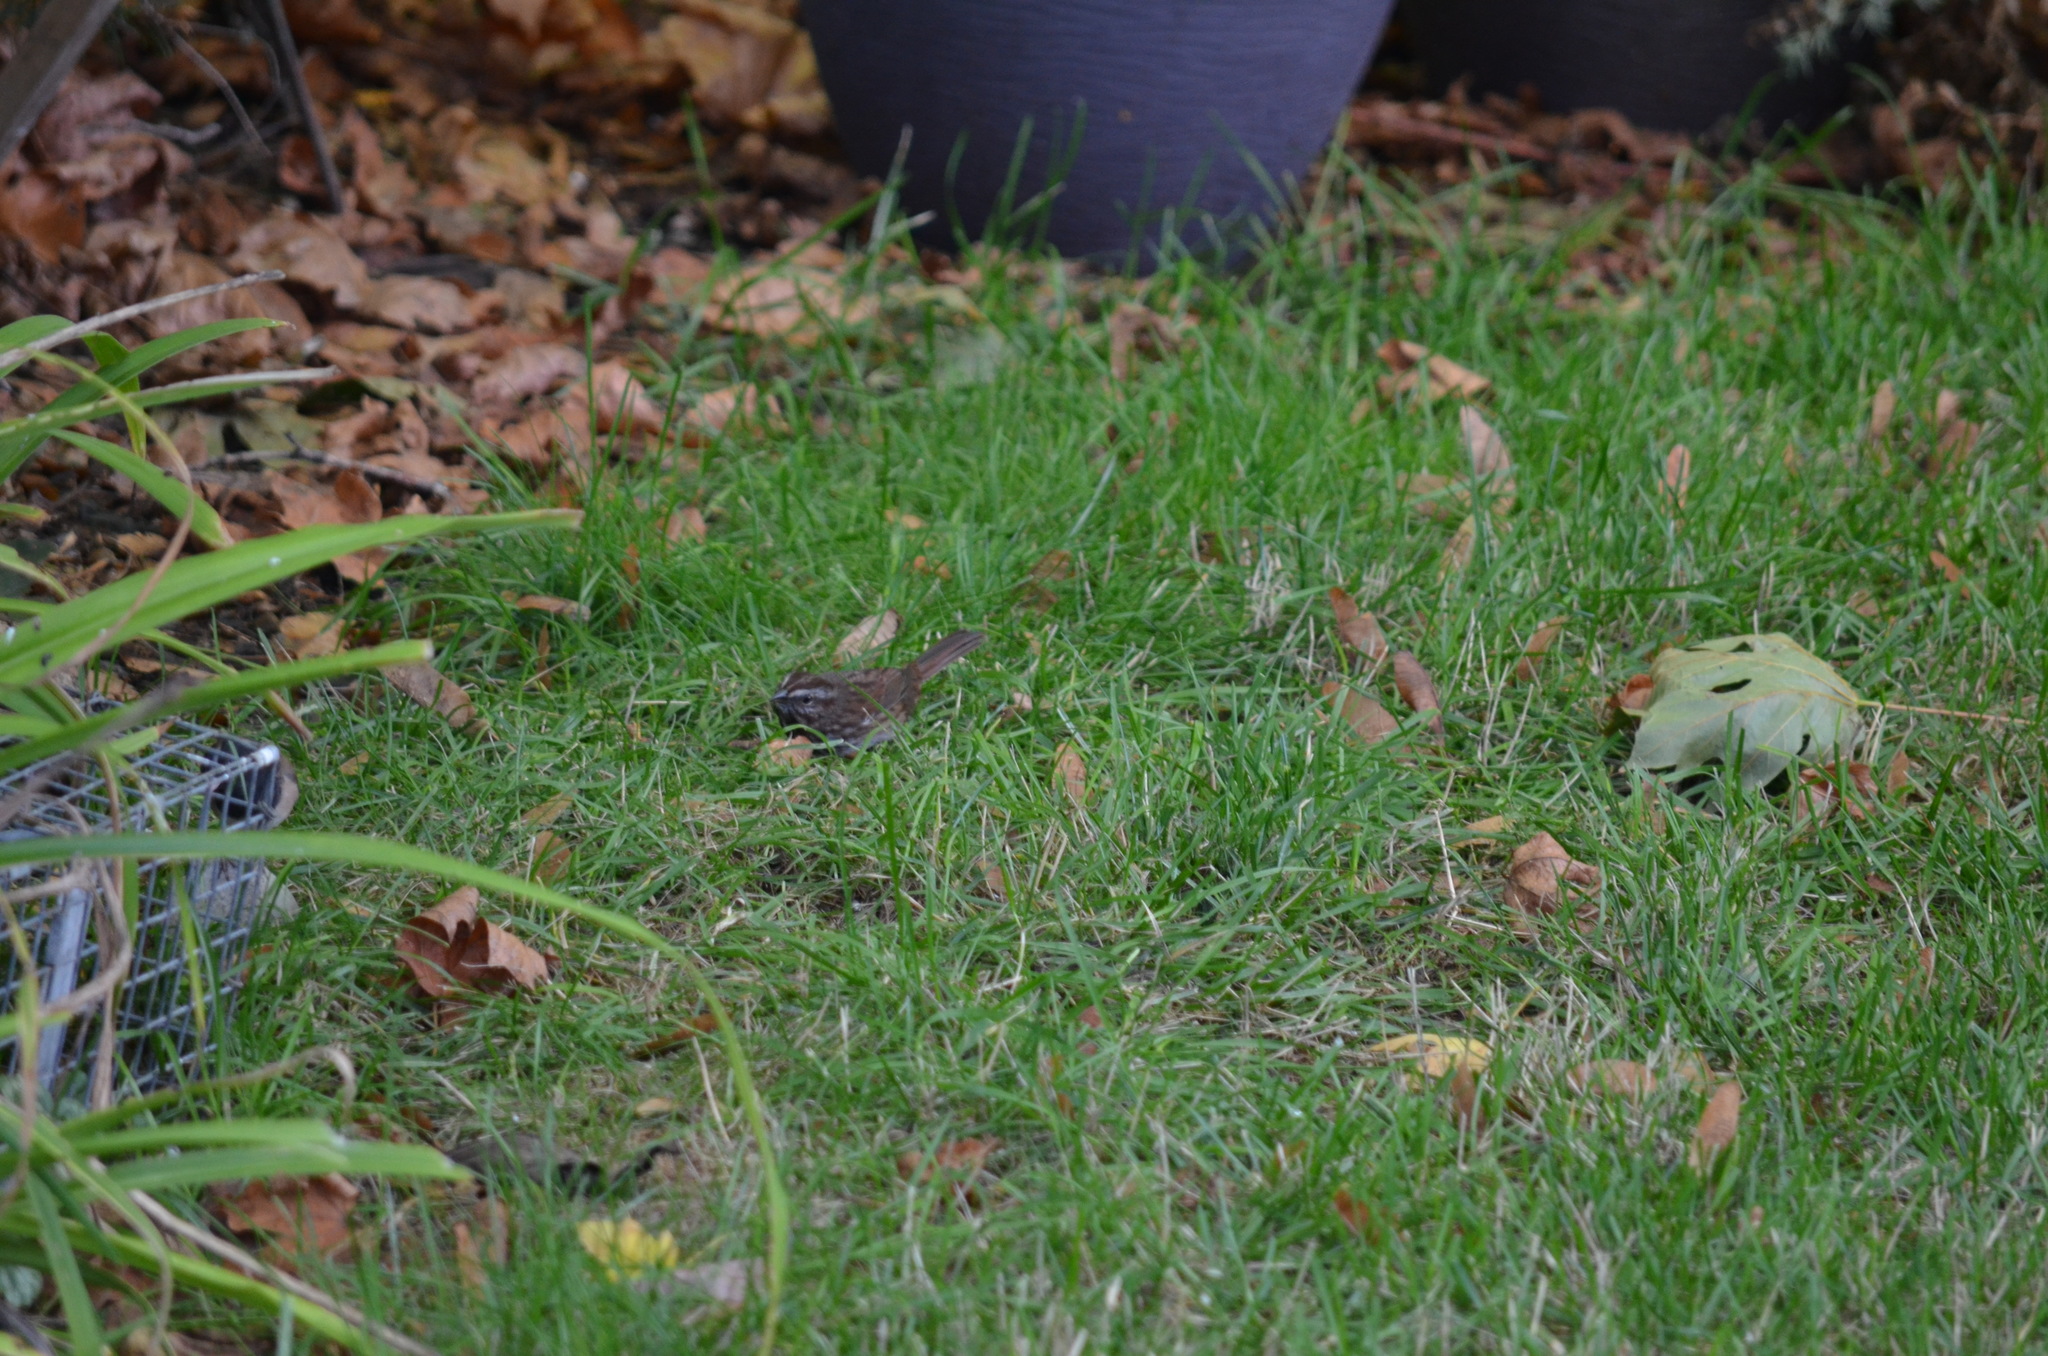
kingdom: Animalia
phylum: Chordata
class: Aves
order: Passeriformes
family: Passerellidae
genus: Melospiza
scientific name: Melospiza melodia
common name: Song sparrow
